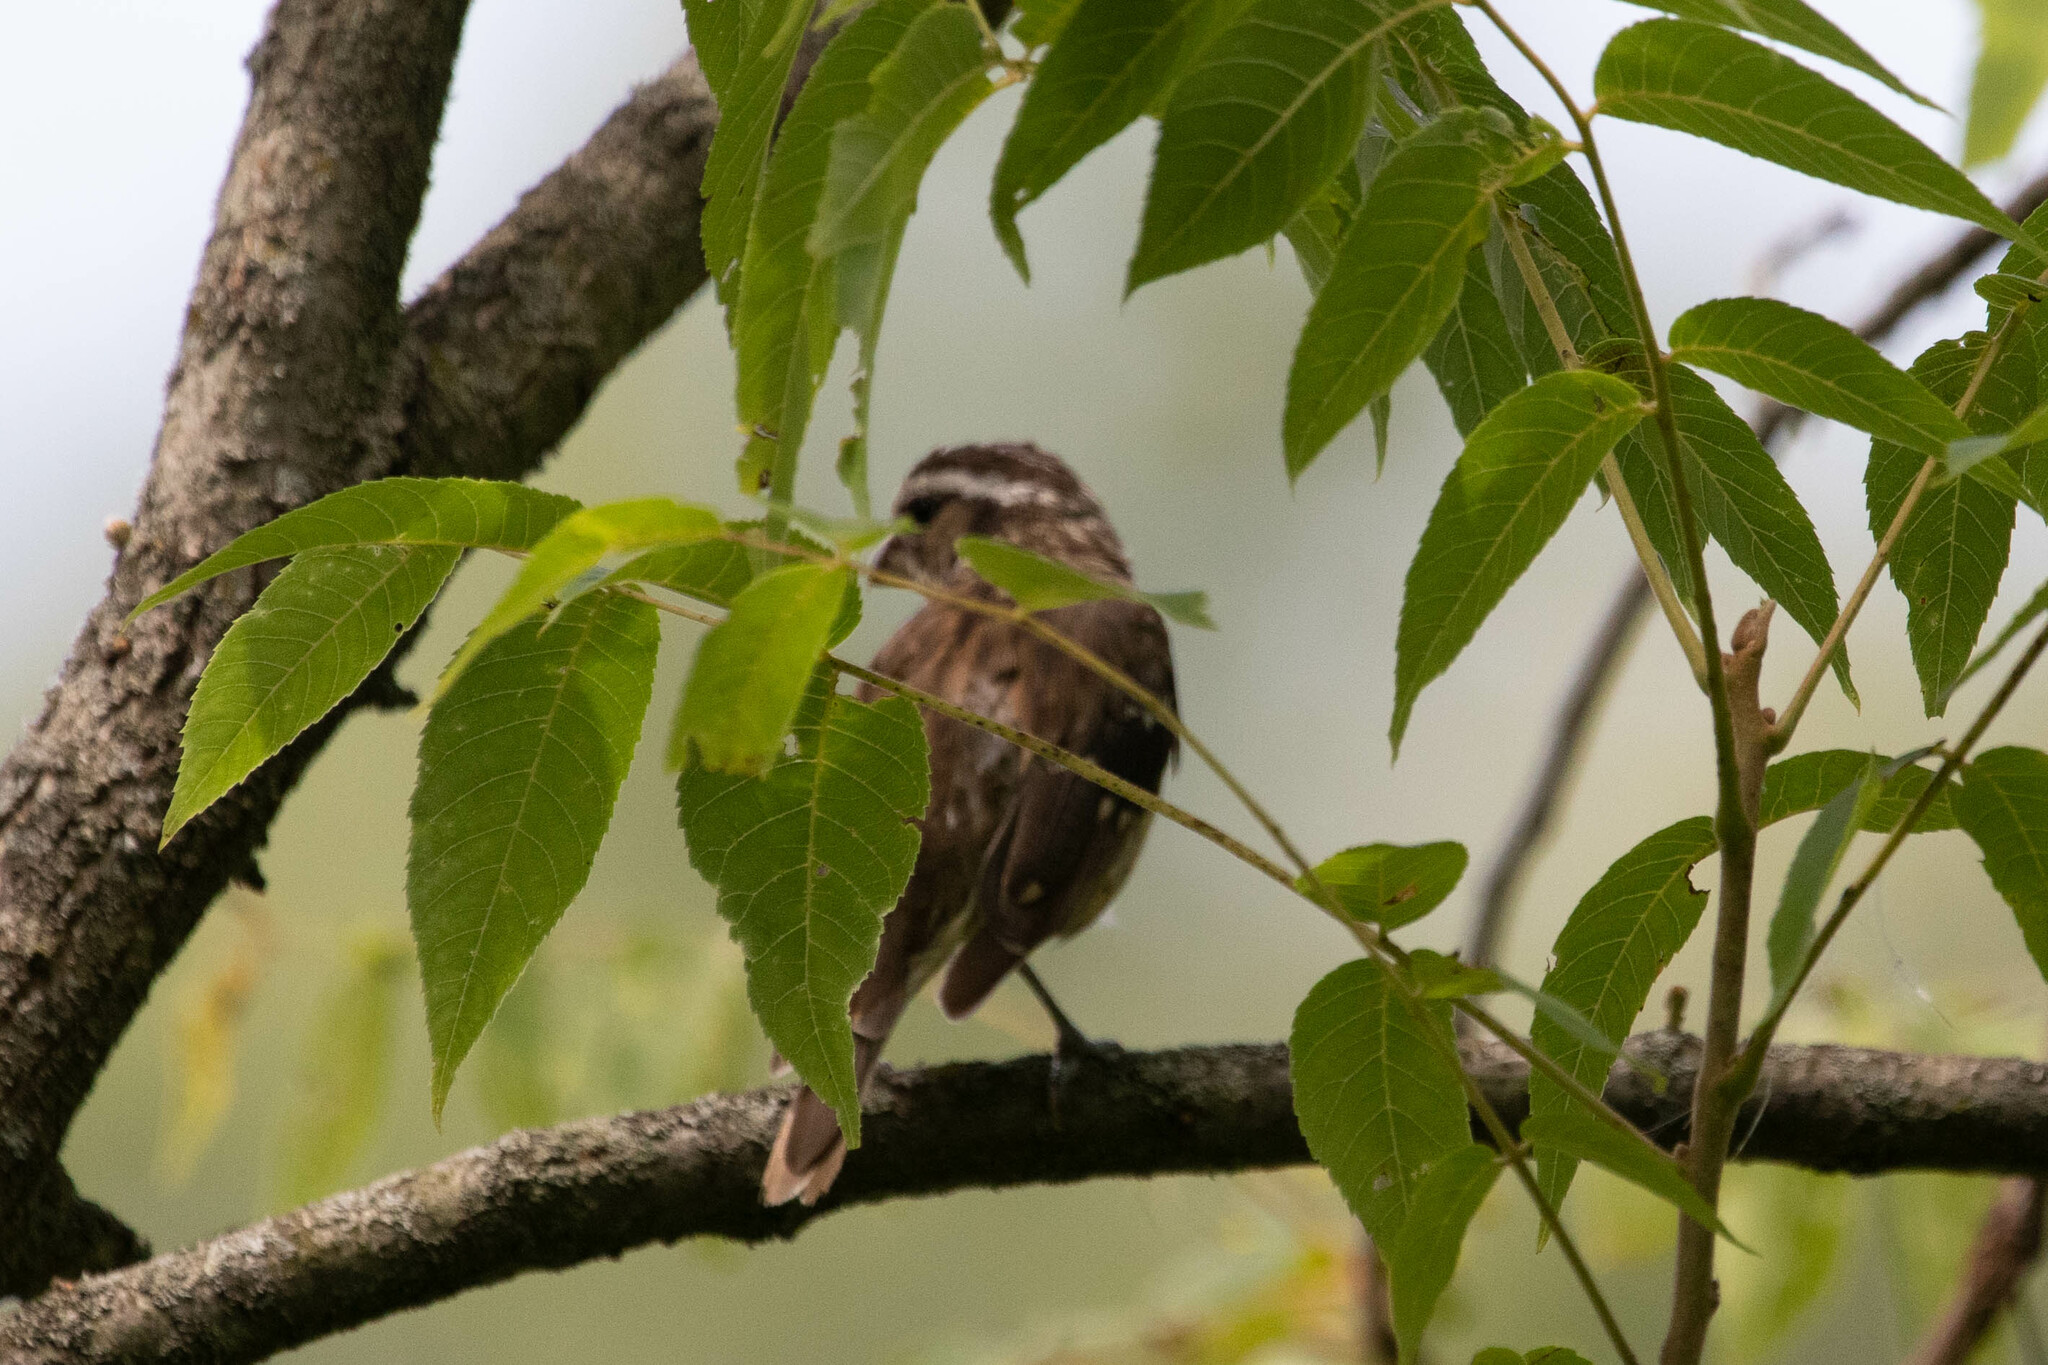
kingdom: Animalia
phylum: Chordata
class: Aves
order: Passeriformes
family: Cardinalidae
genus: Pheucticus
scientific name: Pheucticus ludovicianus
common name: Rose-breasted grosbeak
